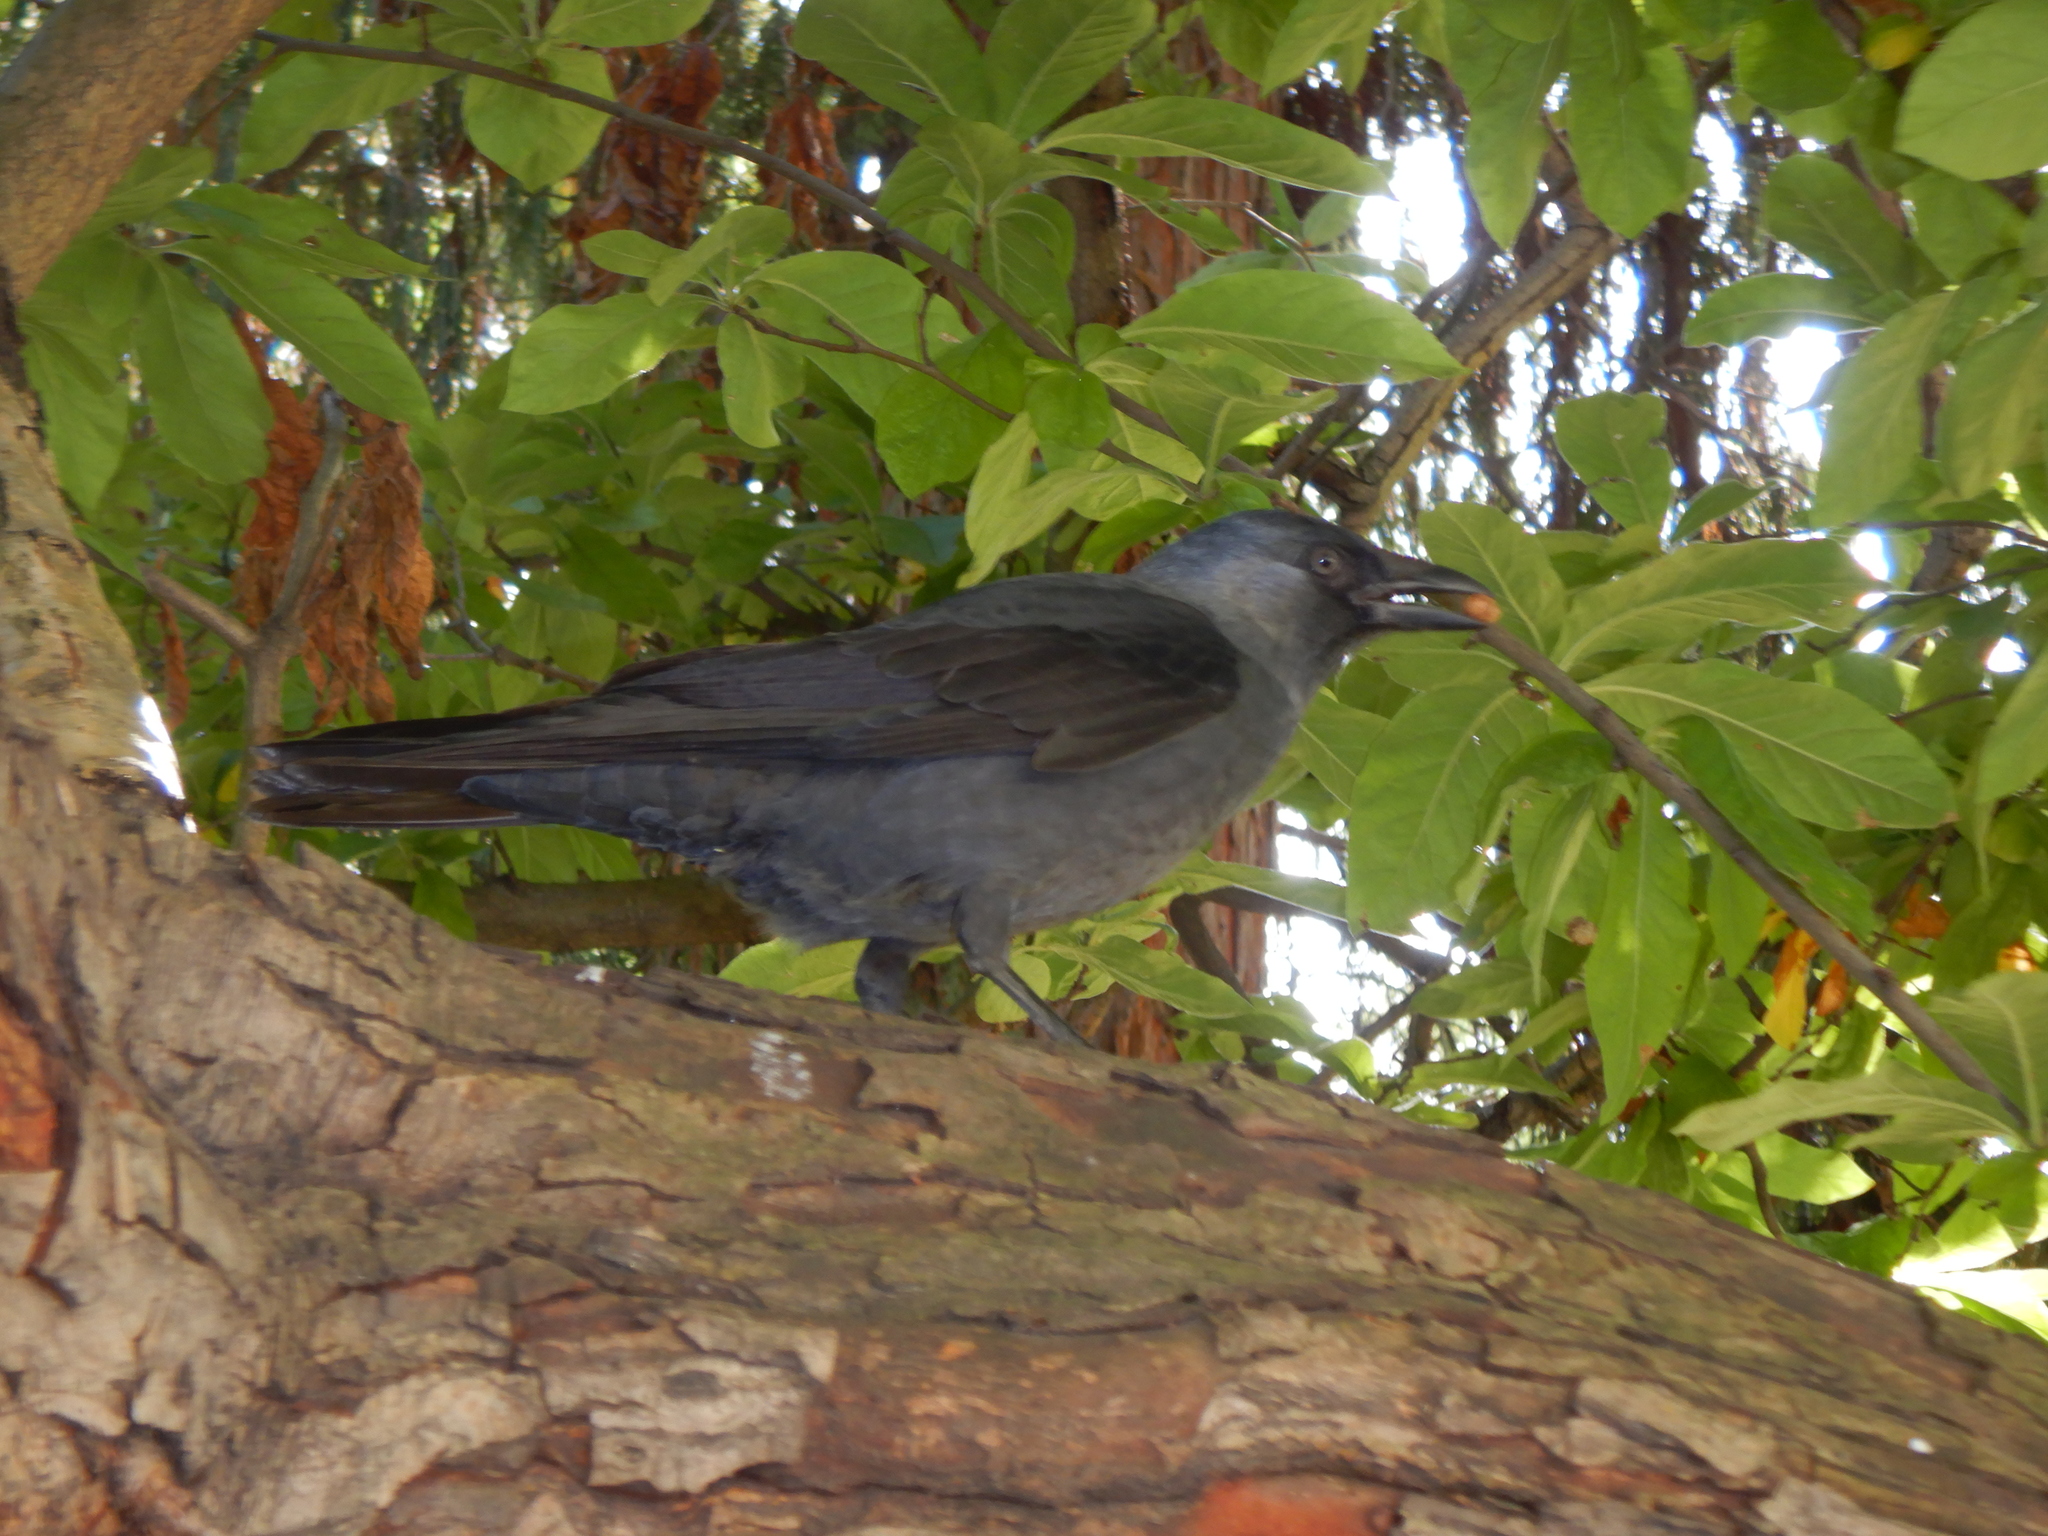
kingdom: Animalia
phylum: Chordata
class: Aves
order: Passeriformes
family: Corvidae
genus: Coloeus
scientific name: Coloeus monedula
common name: Western jackdaw
